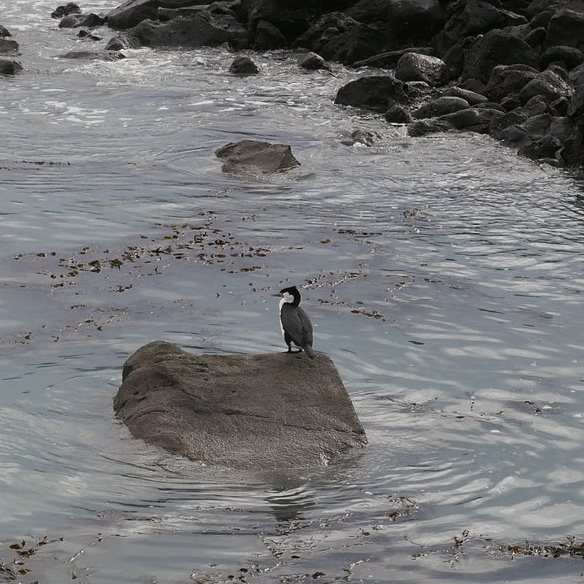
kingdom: Animalia
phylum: Chordata
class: Aves
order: Suliformes
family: Phalacrocoracidae
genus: Phalacrocorax
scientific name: Phalacrocorax varius
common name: Pied cormorant
